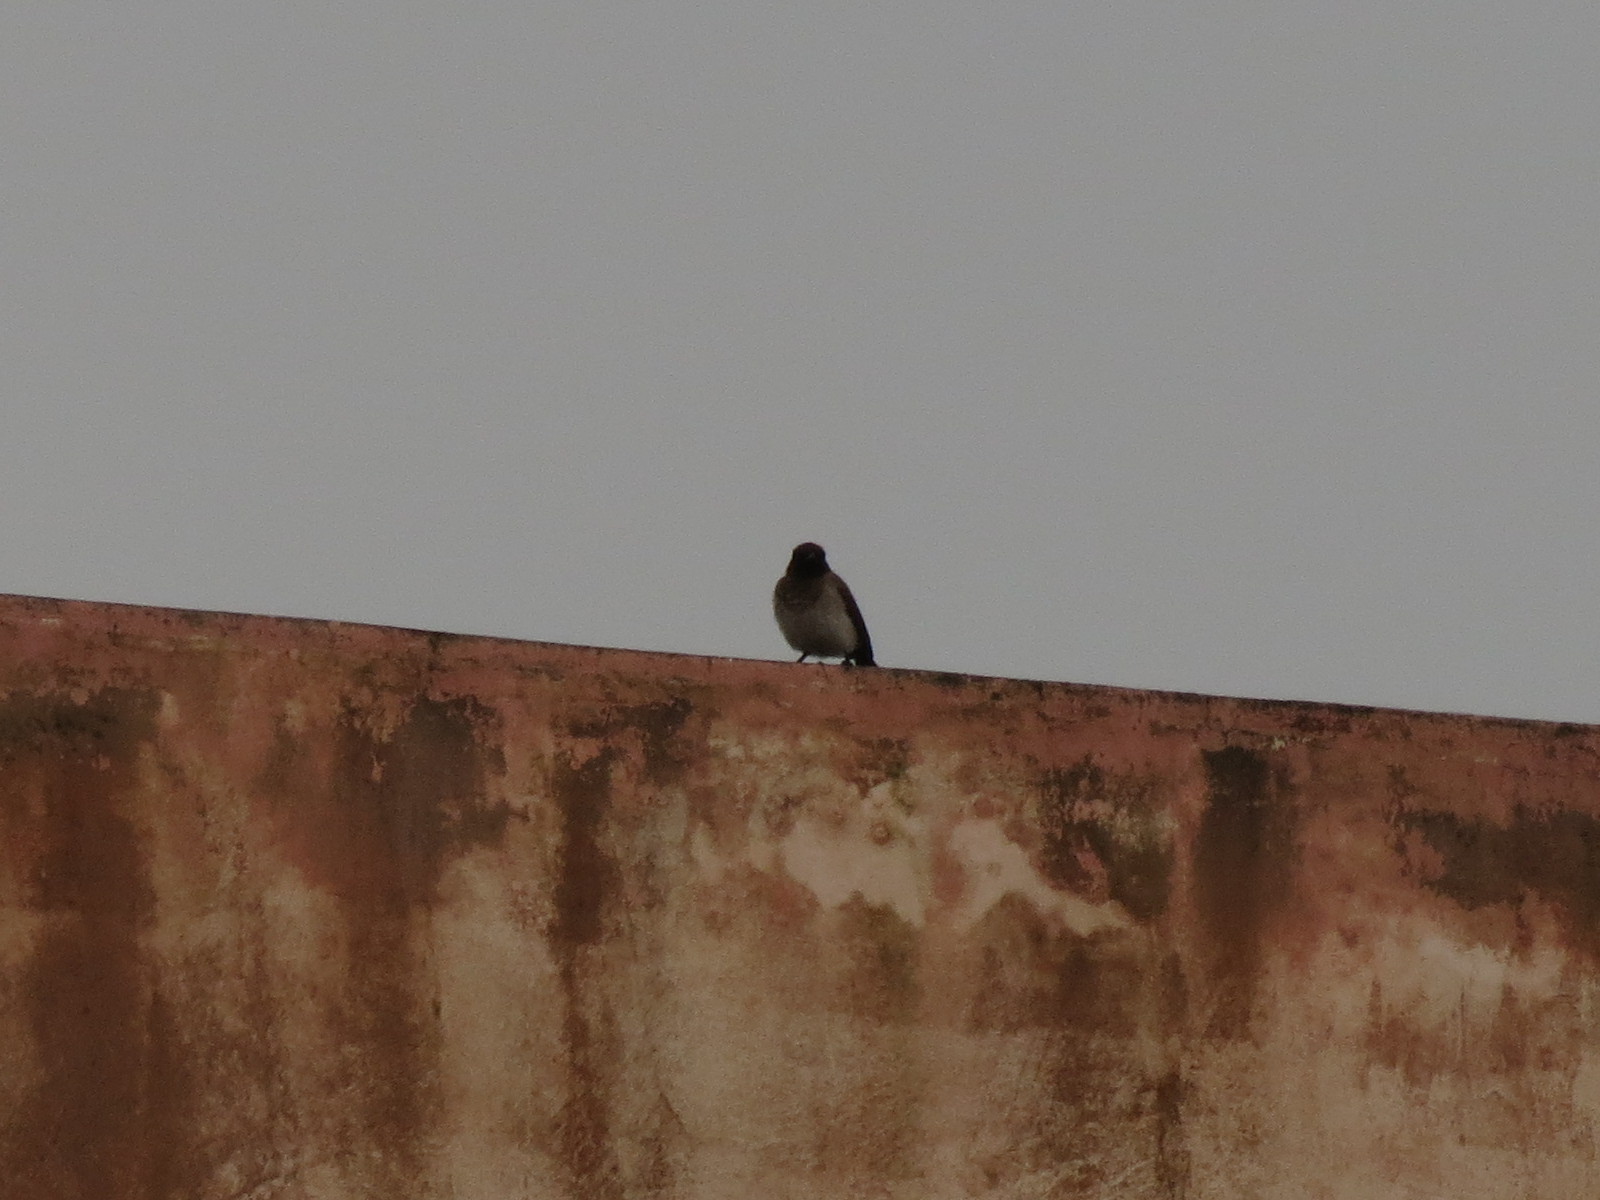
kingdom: Animalia
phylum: Chordata
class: Aves
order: Passeriformes
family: Pycnonotidae
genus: Pycnonotus
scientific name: Pycnonotus barbatus
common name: Common bulbul
